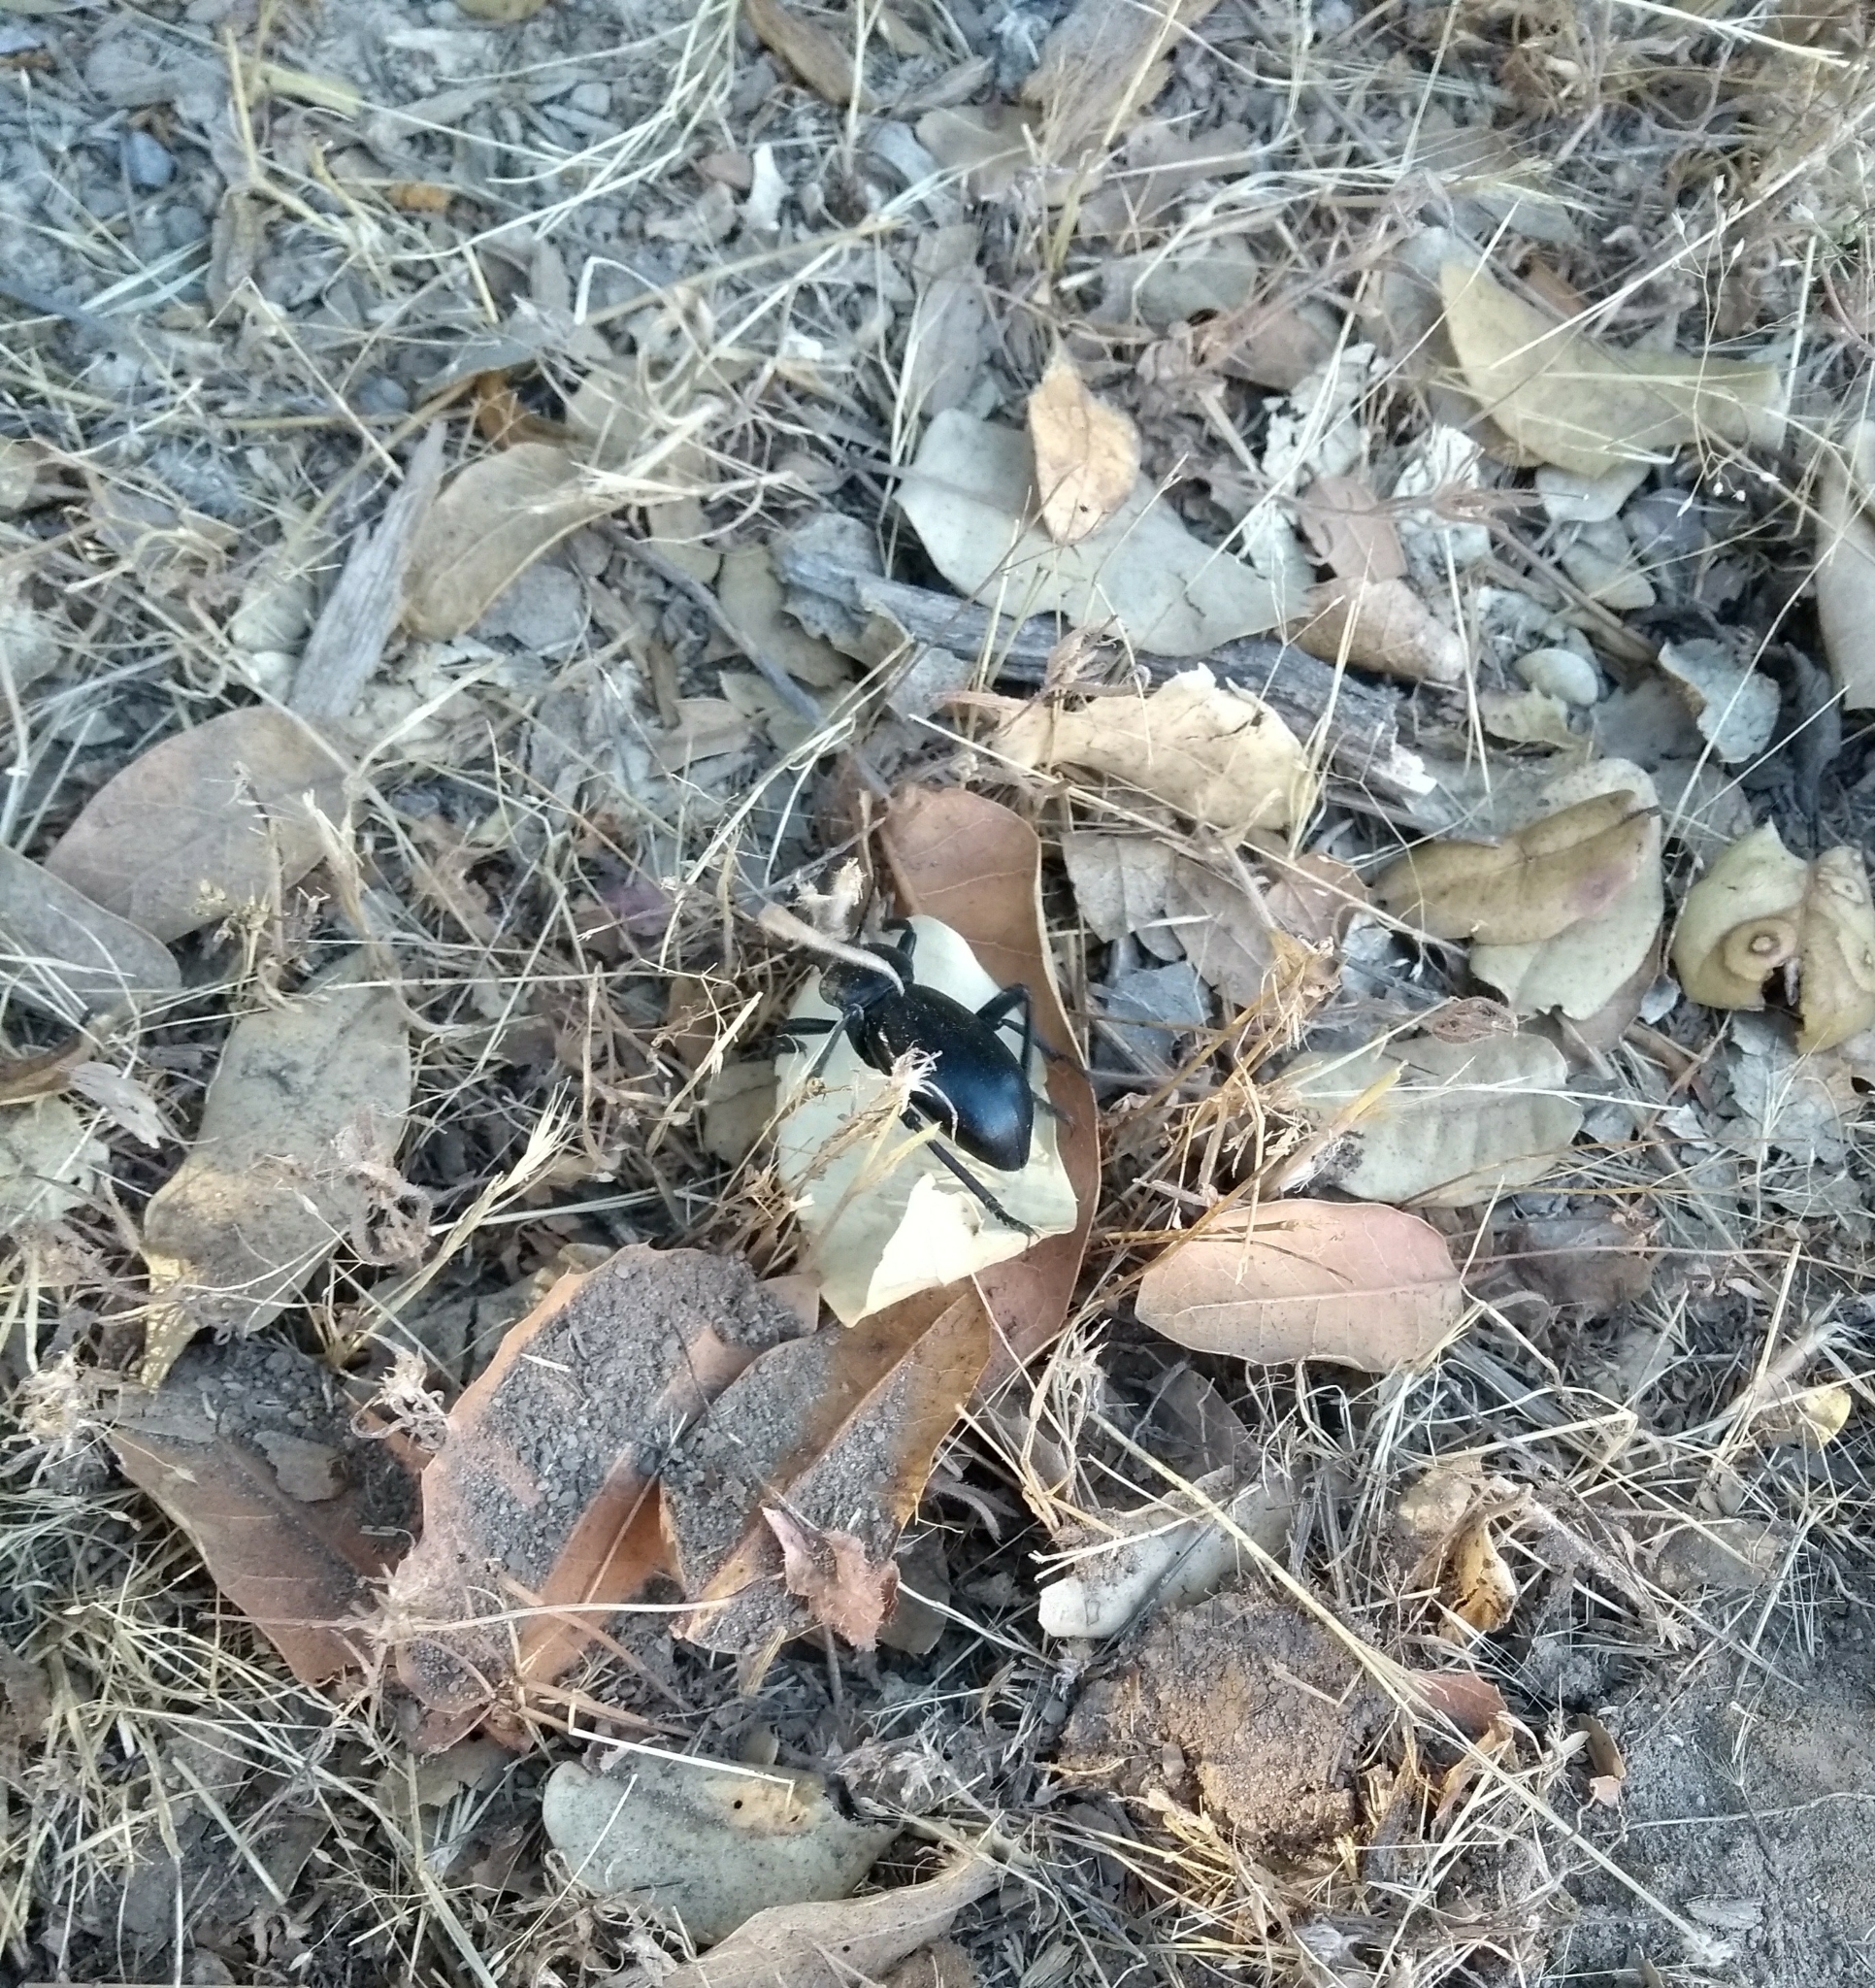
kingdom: Animalia
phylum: Arthropoda
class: Insecta
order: Coleoptera
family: Tenebrionidae
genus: Eleodes
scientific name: Eleodes grandicollis
